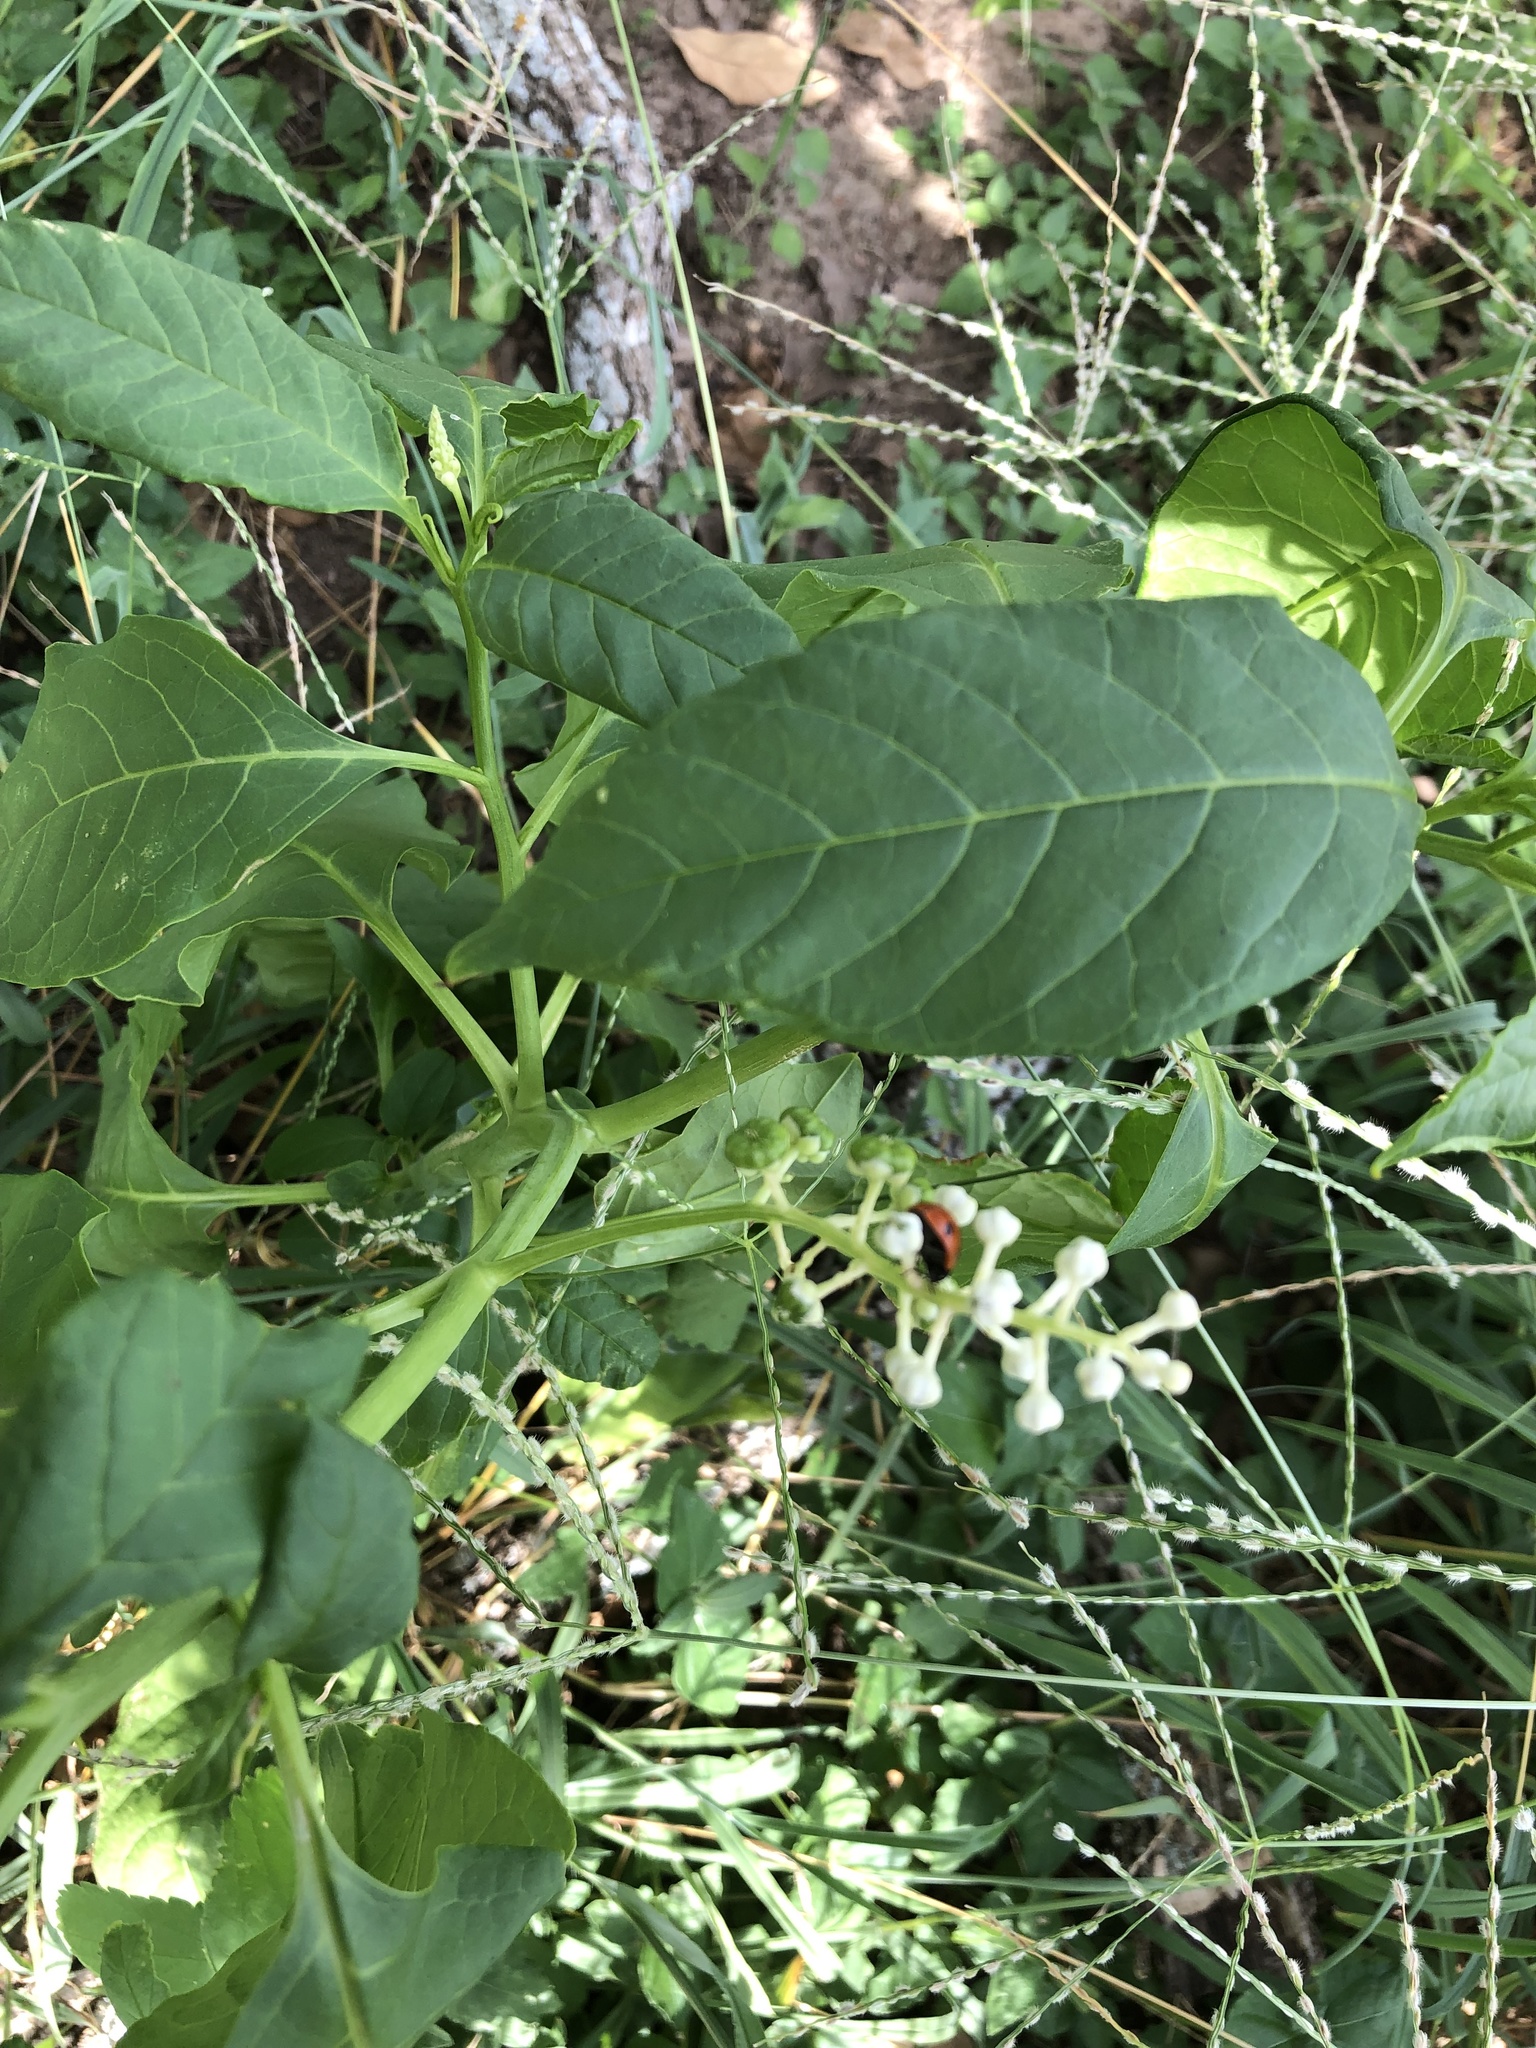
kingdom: Plantae
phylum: Tracheophyta
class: Magnoliopsida
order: Caryophyllales
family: Phytolaccaceae
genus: Phytolacca
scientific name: Phytolacca americana
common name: American pokeweed
